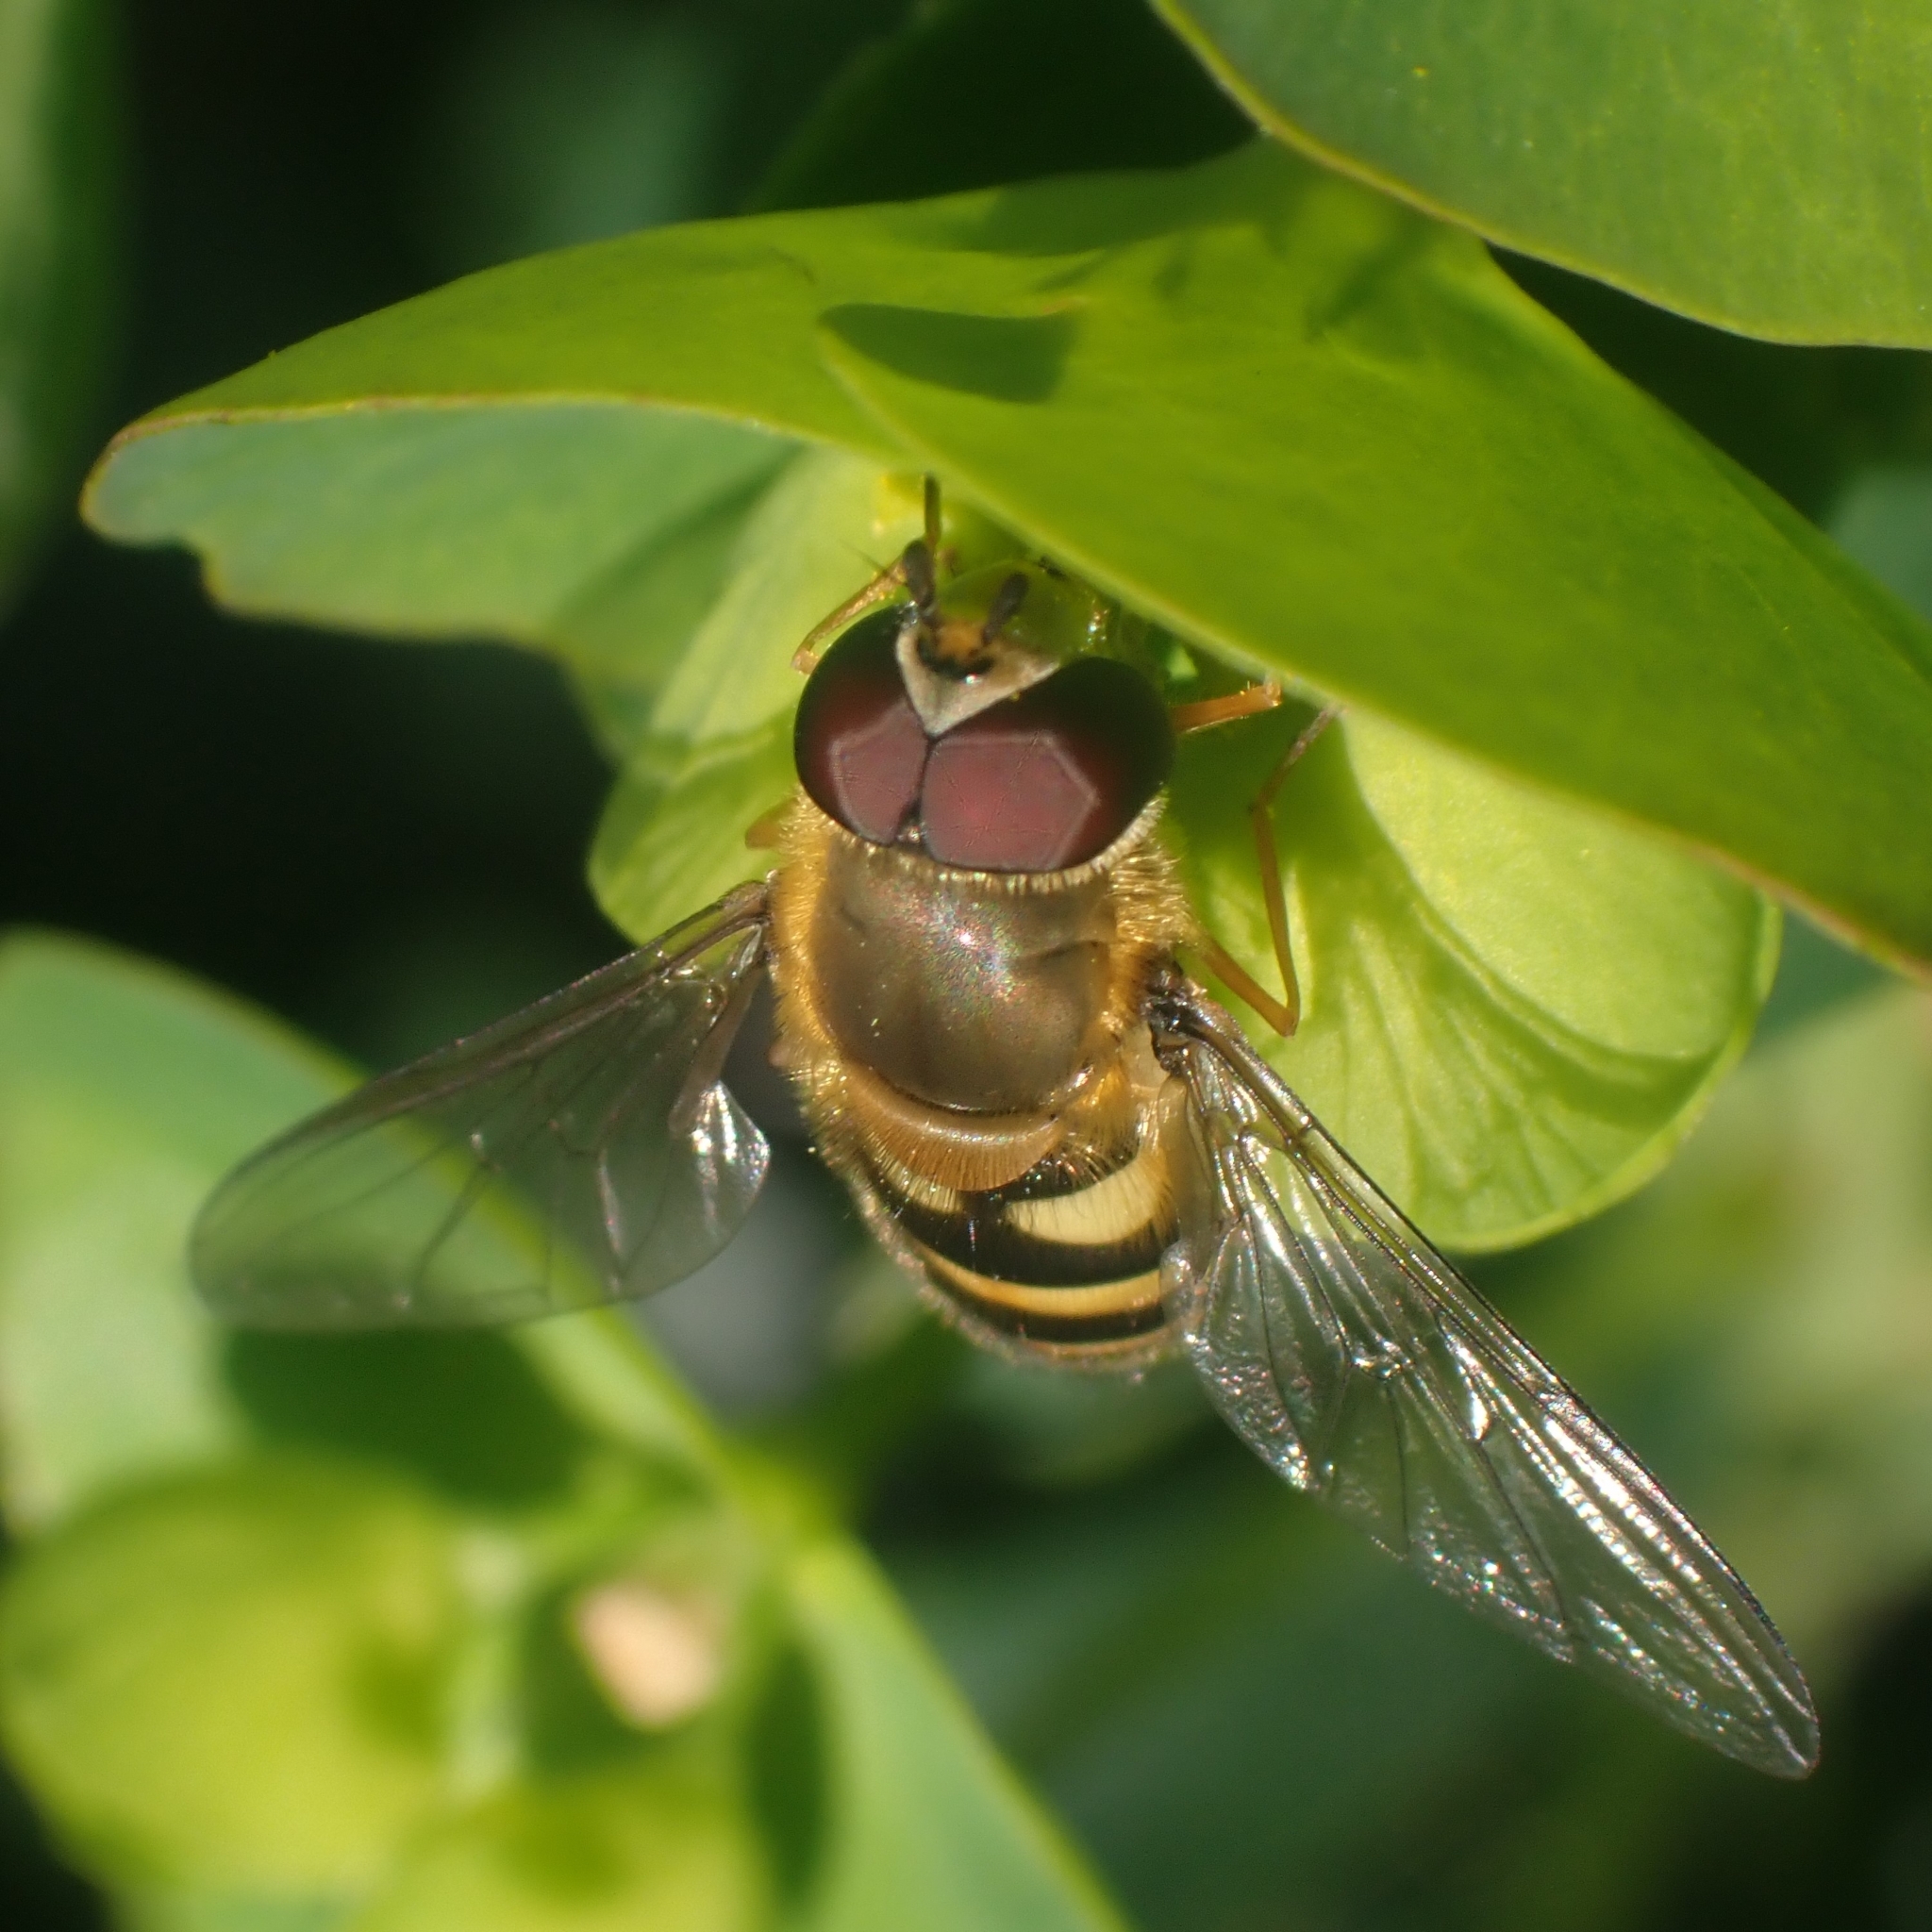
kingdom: Animalia
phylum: Arthropoda
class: Insecta
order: Diptera
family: Syrphidae
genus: Syrphus
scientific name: Syrphus
